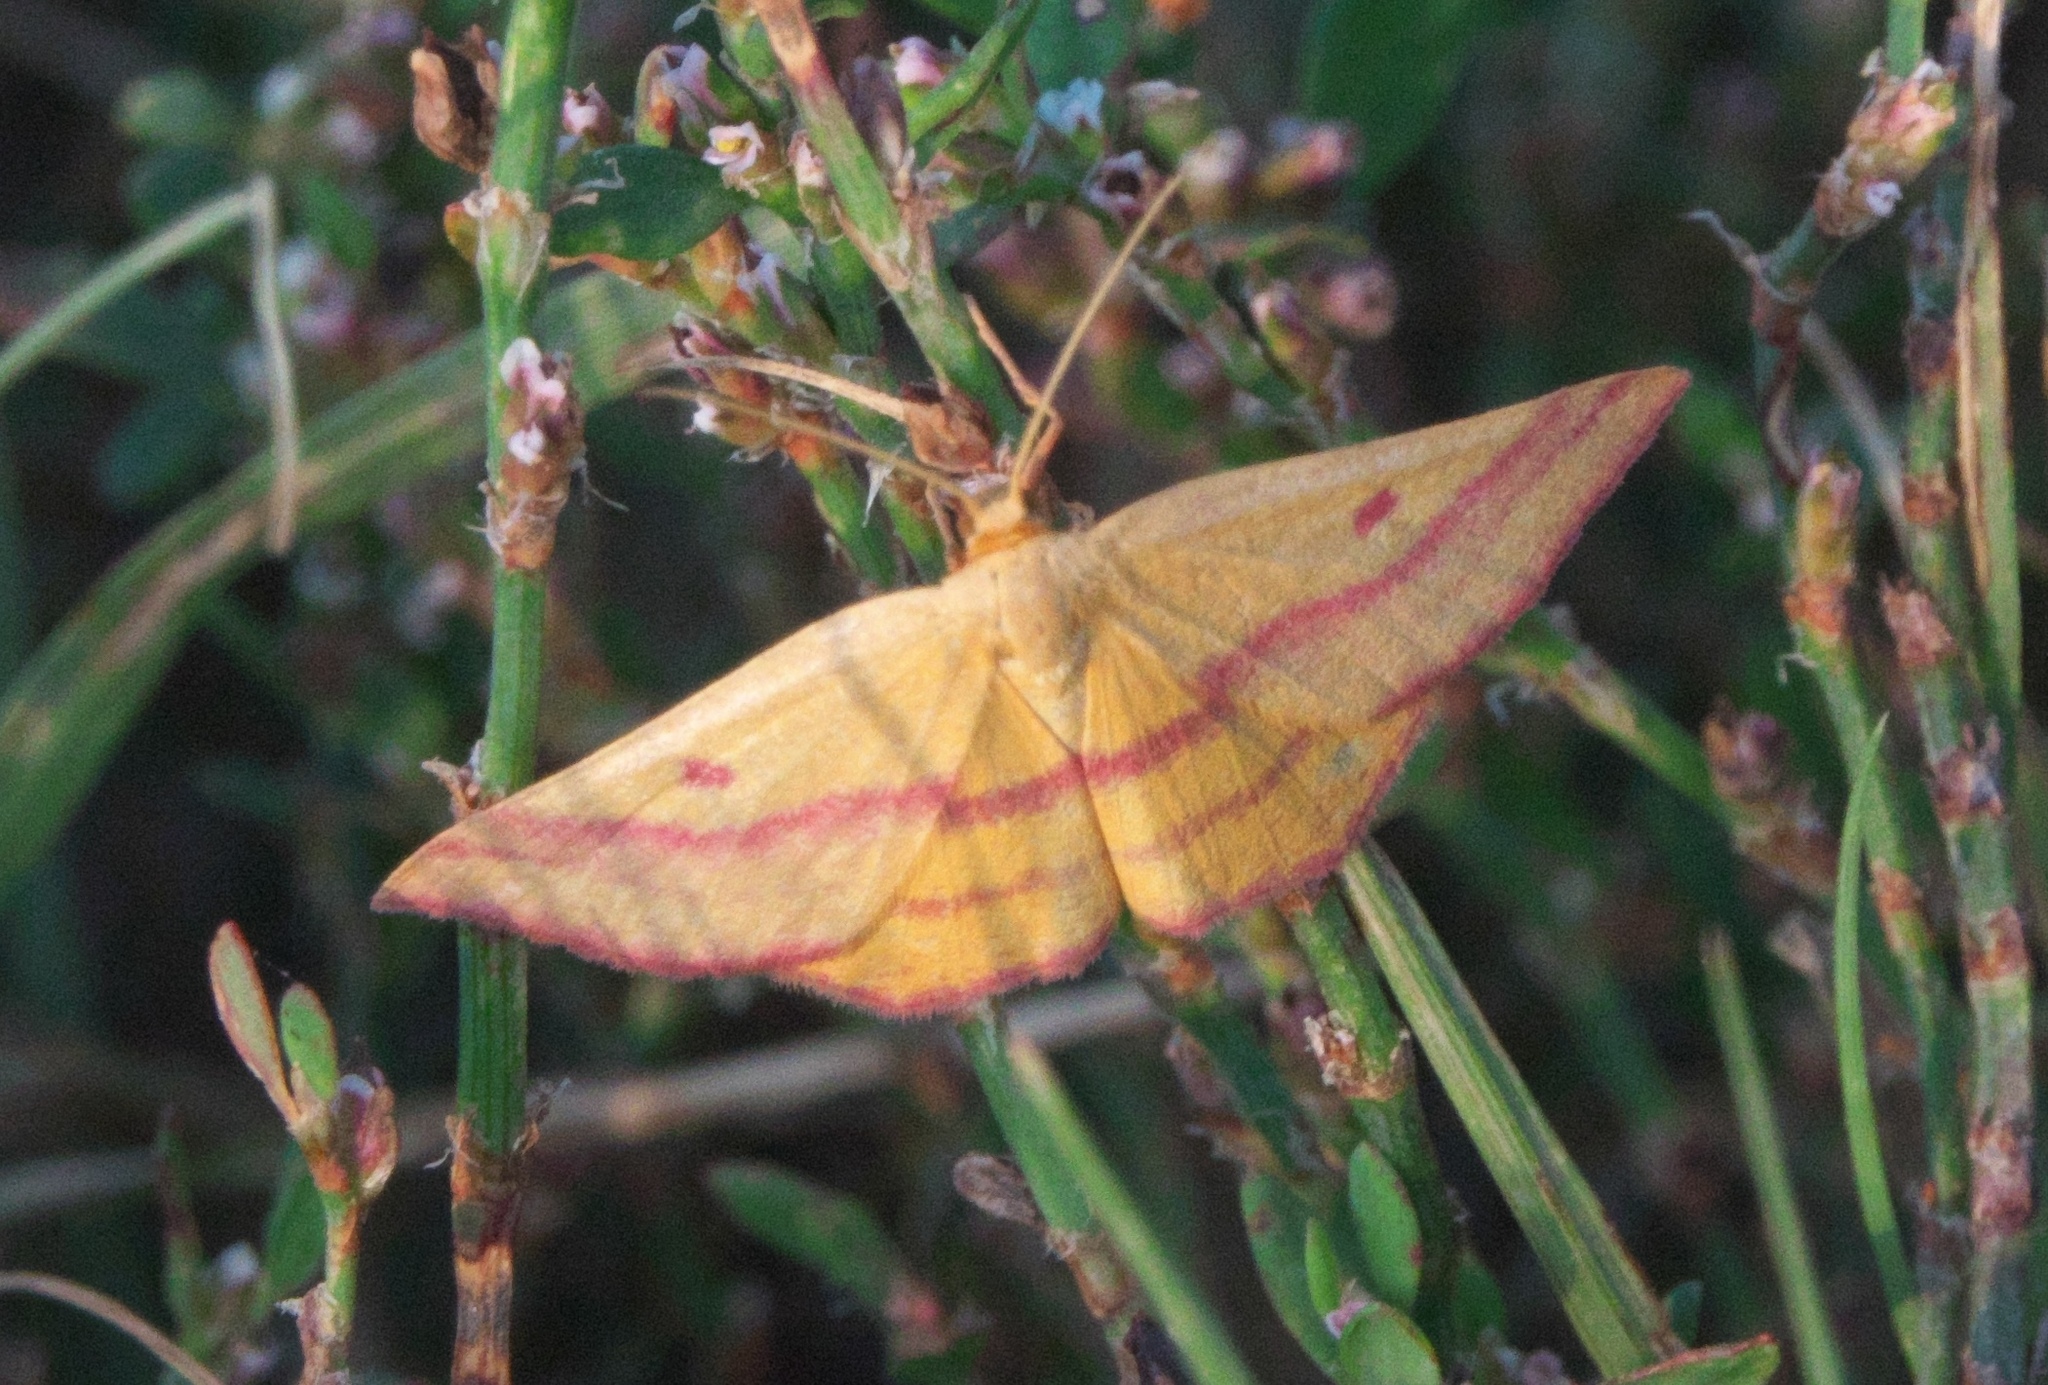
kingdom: Animalia
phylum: Arthropoda
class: Insecta
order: Lepidoptera
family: Geometridae
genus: Haematopis
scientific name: Haematopis grataria
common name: Chickweed geometer
